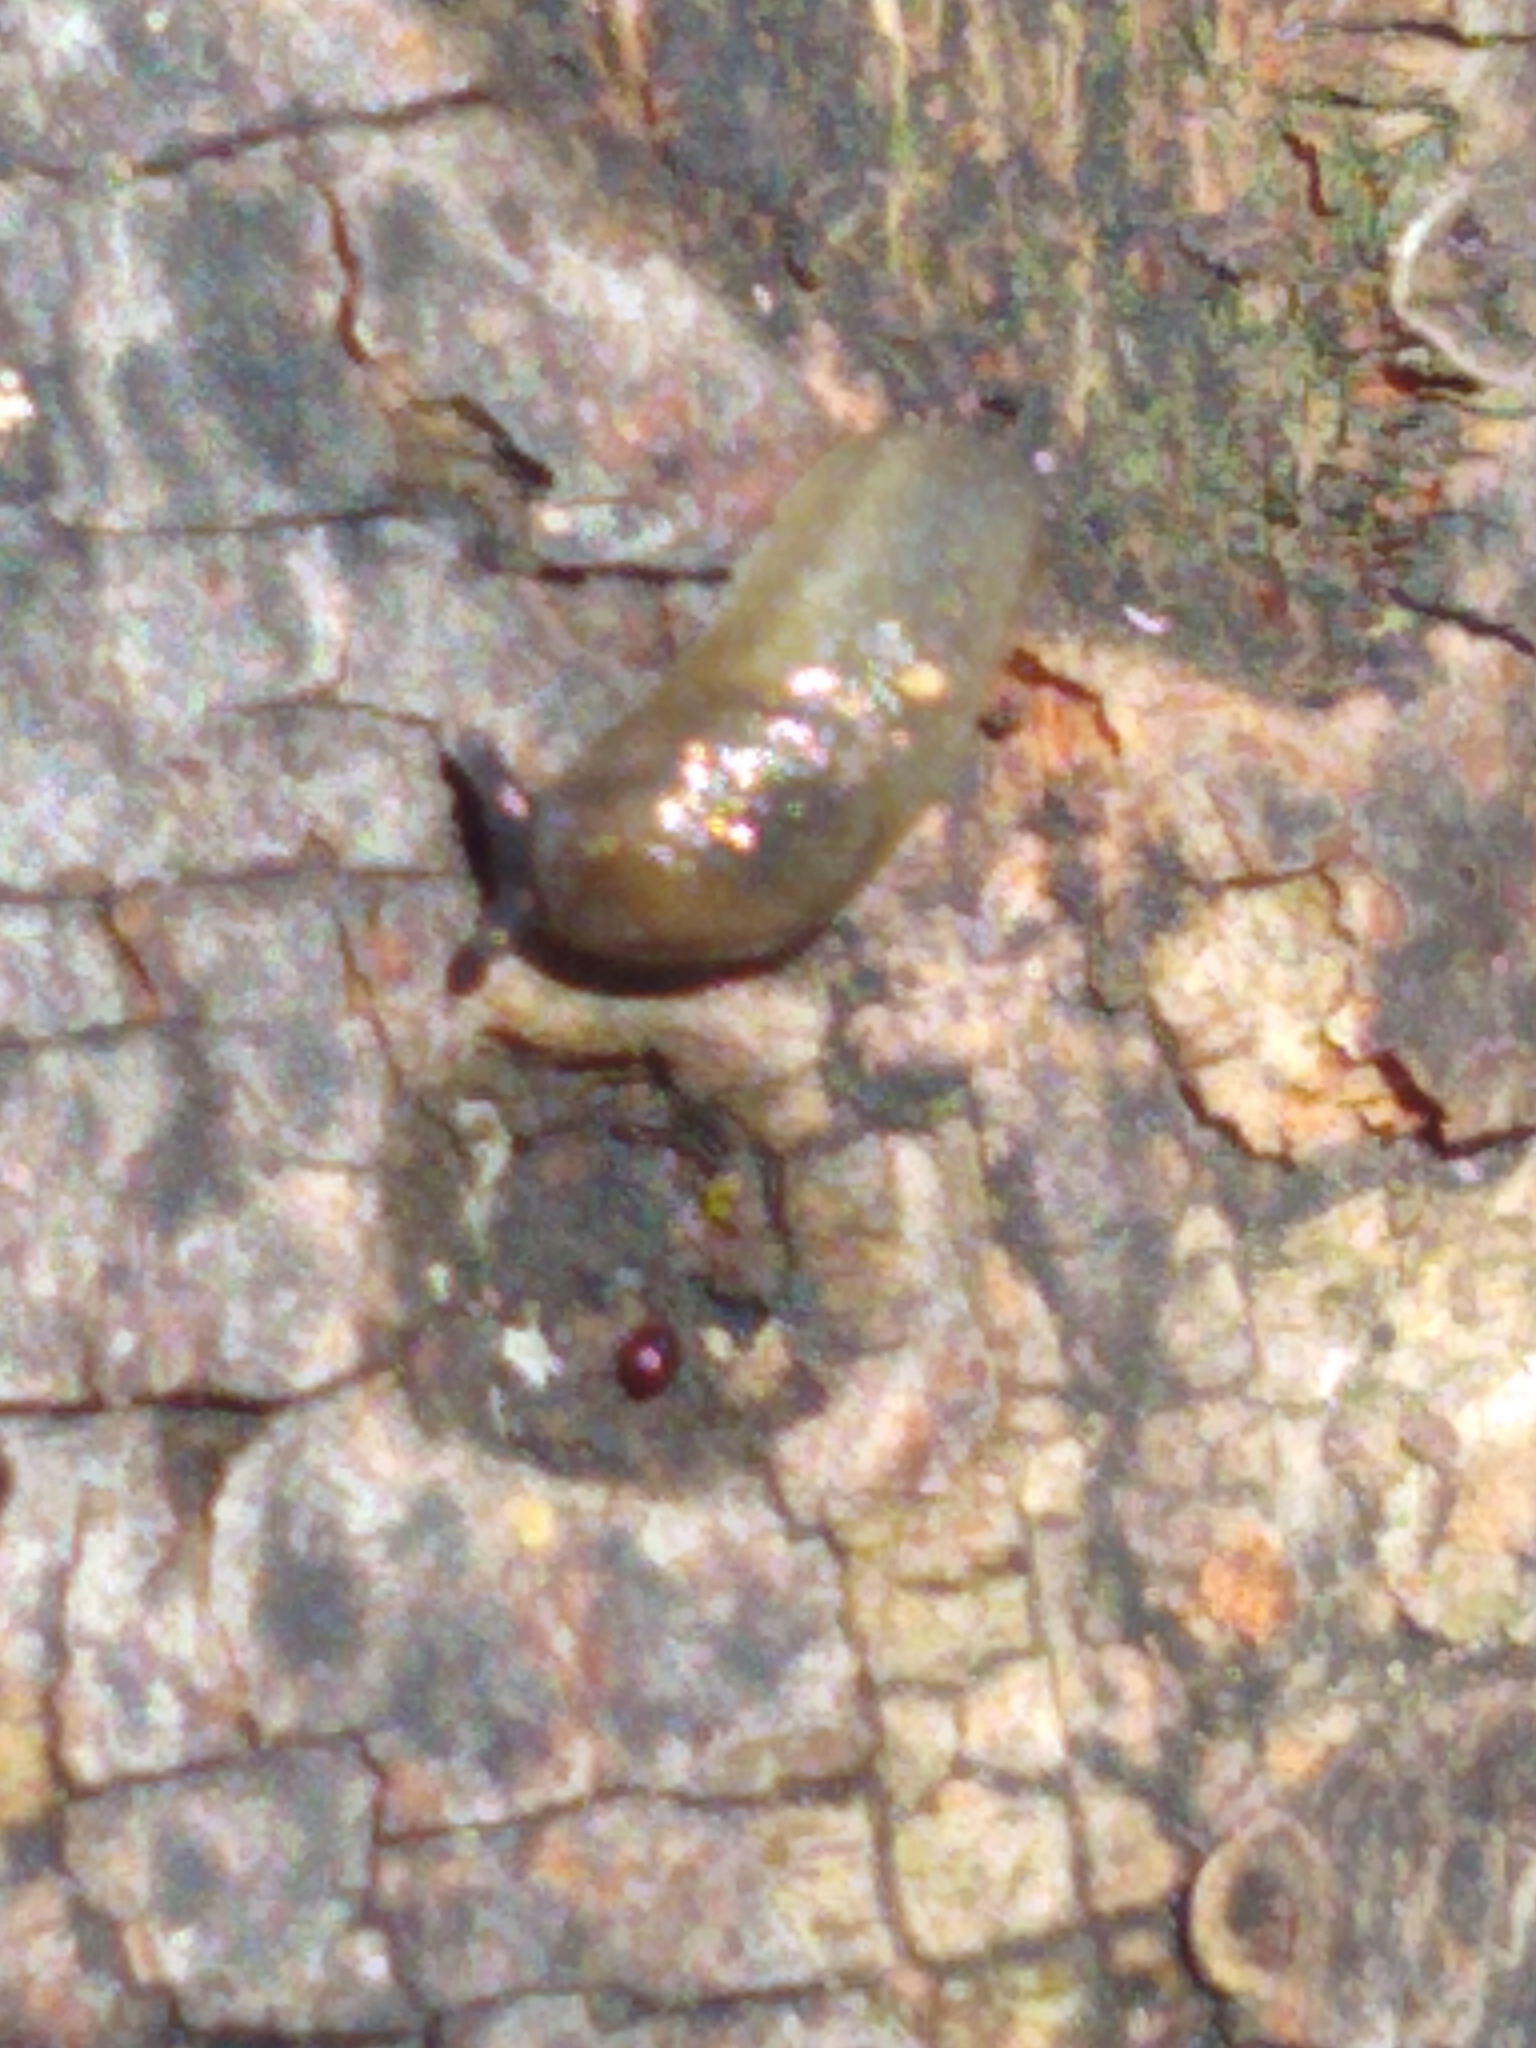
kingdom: Animalia
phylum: Mollusca
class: Gastropoda
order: Stylommatophora
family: Arionidae
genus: Arion
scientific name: Arion intermedius
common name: Hedgehog slug
